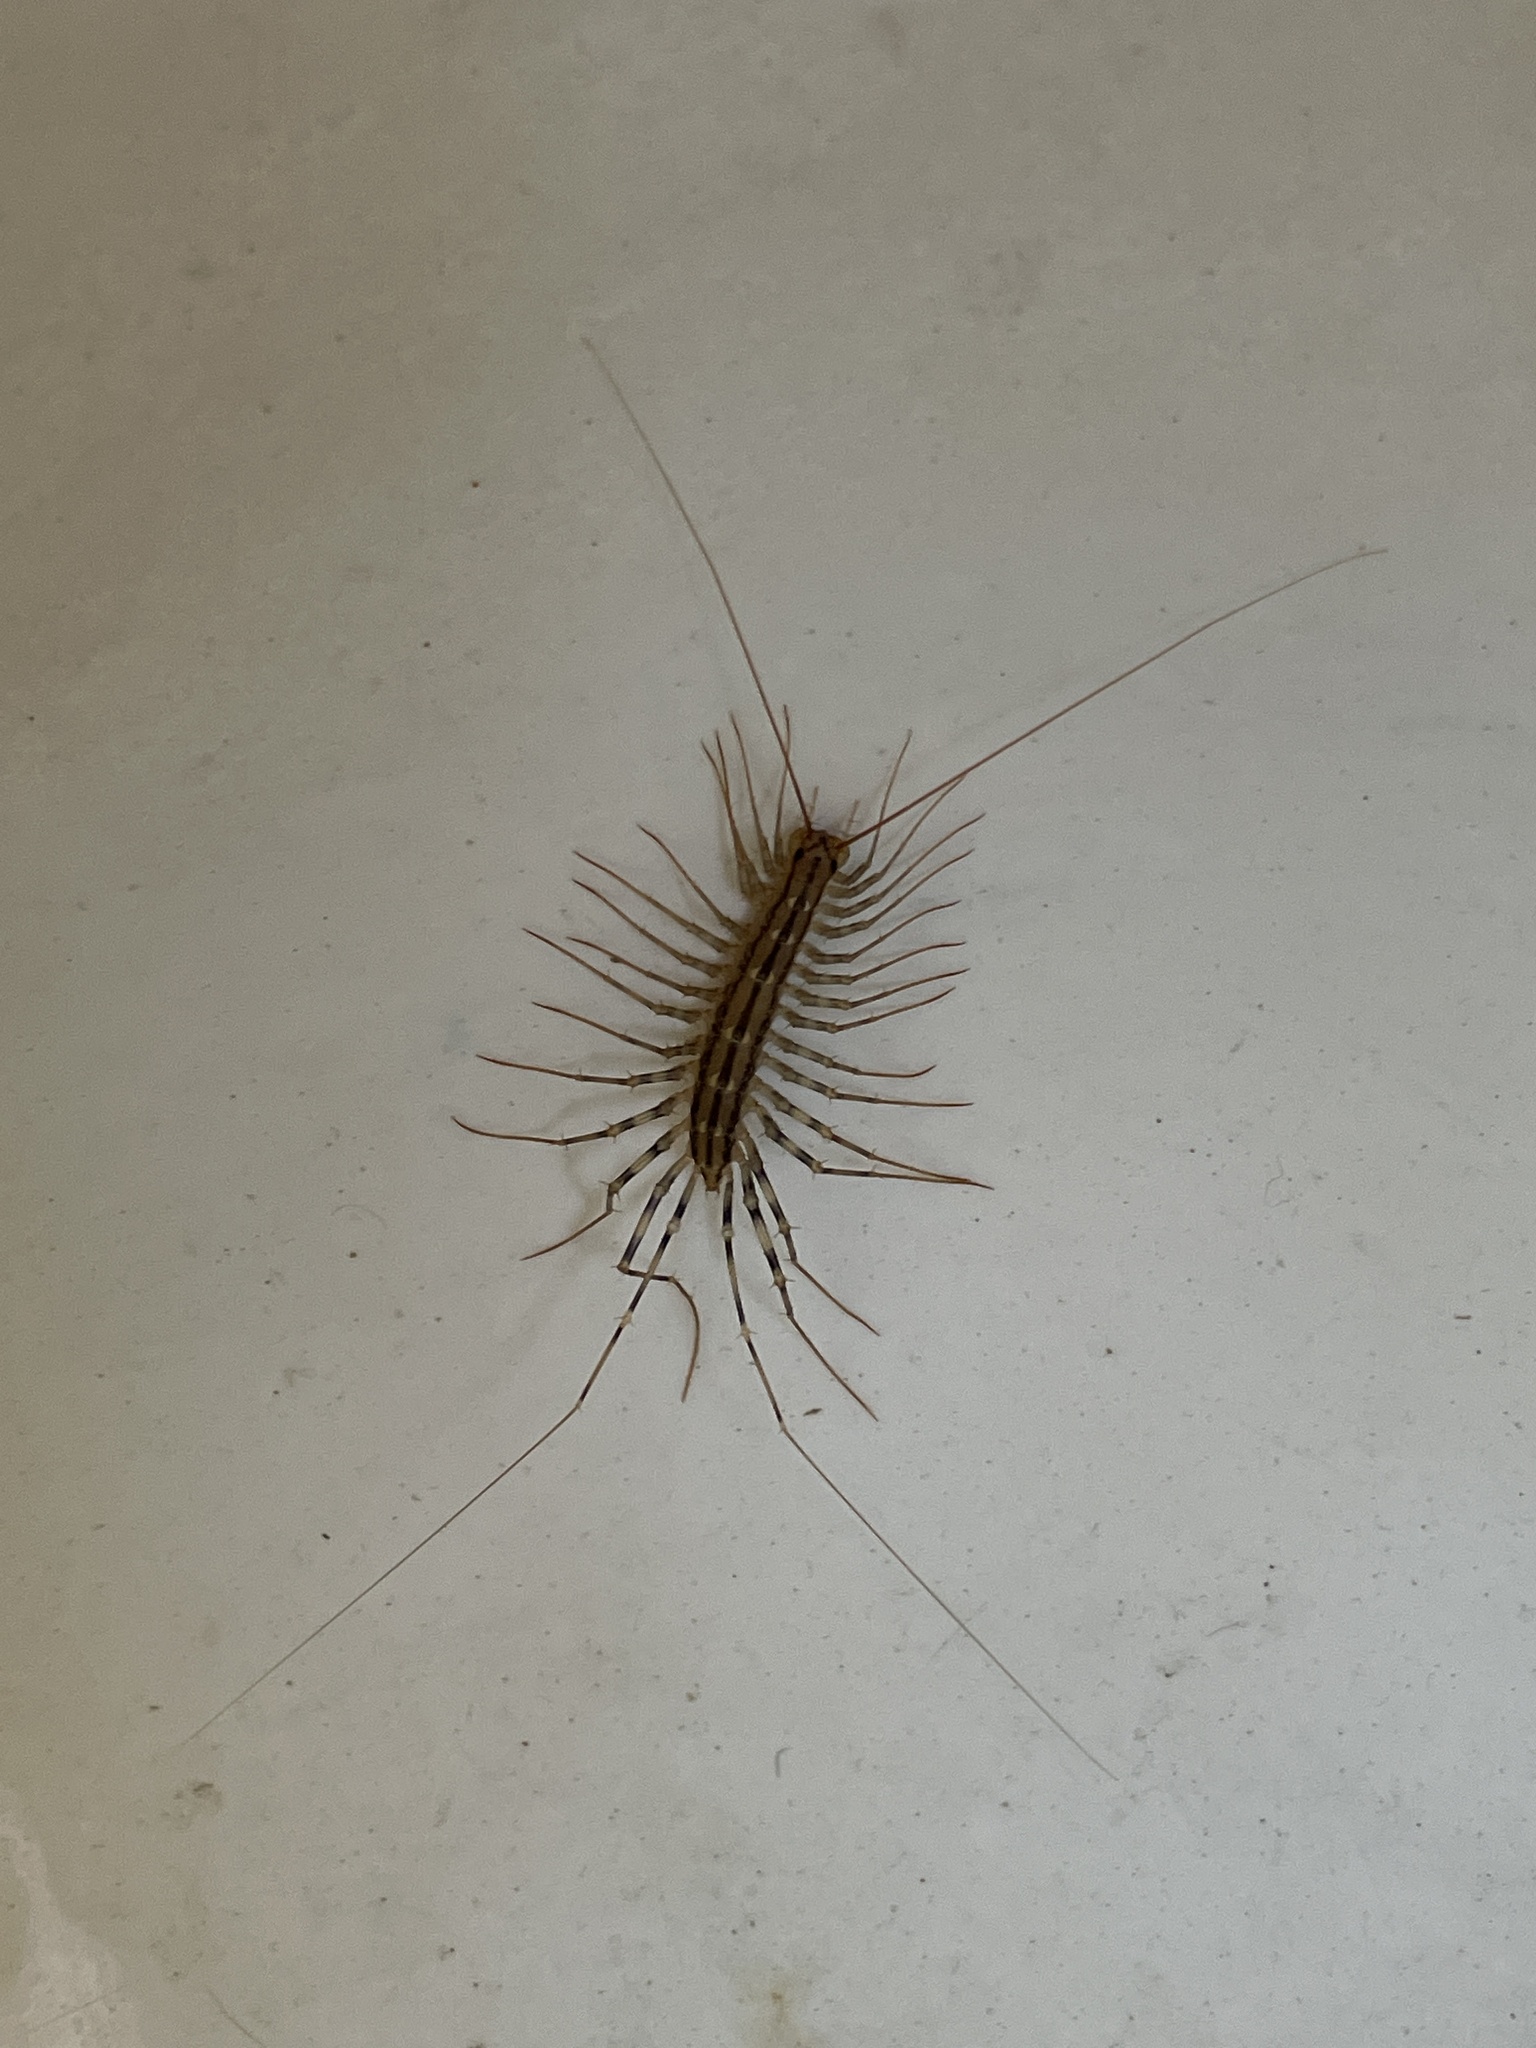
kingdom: Animalia
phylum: Arthropoda
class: Chilopoda
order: Scutigeromorpha
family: Scutigeridae
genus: Scutigera
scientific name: Scutigera coleoptrata
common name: House centipede
